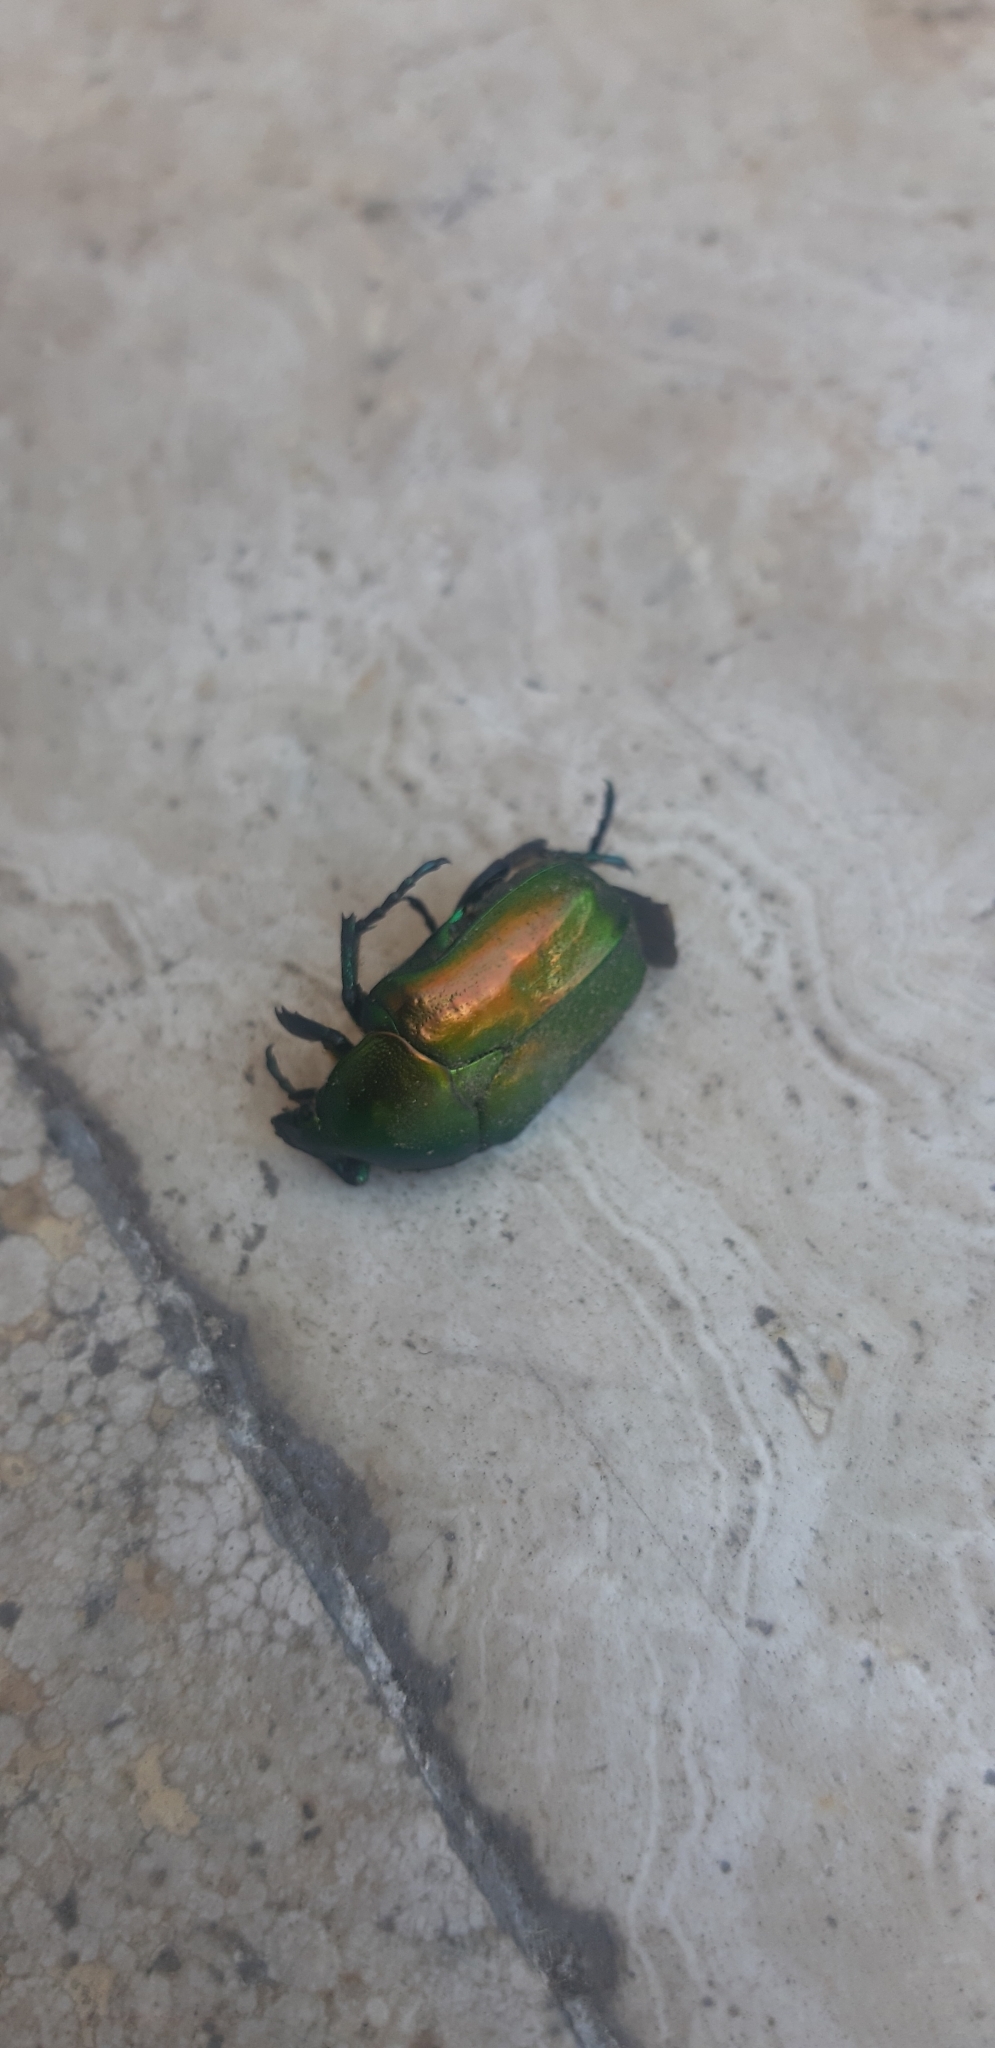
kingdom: Animalia
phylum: Arthropoda
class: Insecta
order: Coleoptera
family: Scarabaeidae
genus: Protaetia
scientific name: Protaetia cuprea
